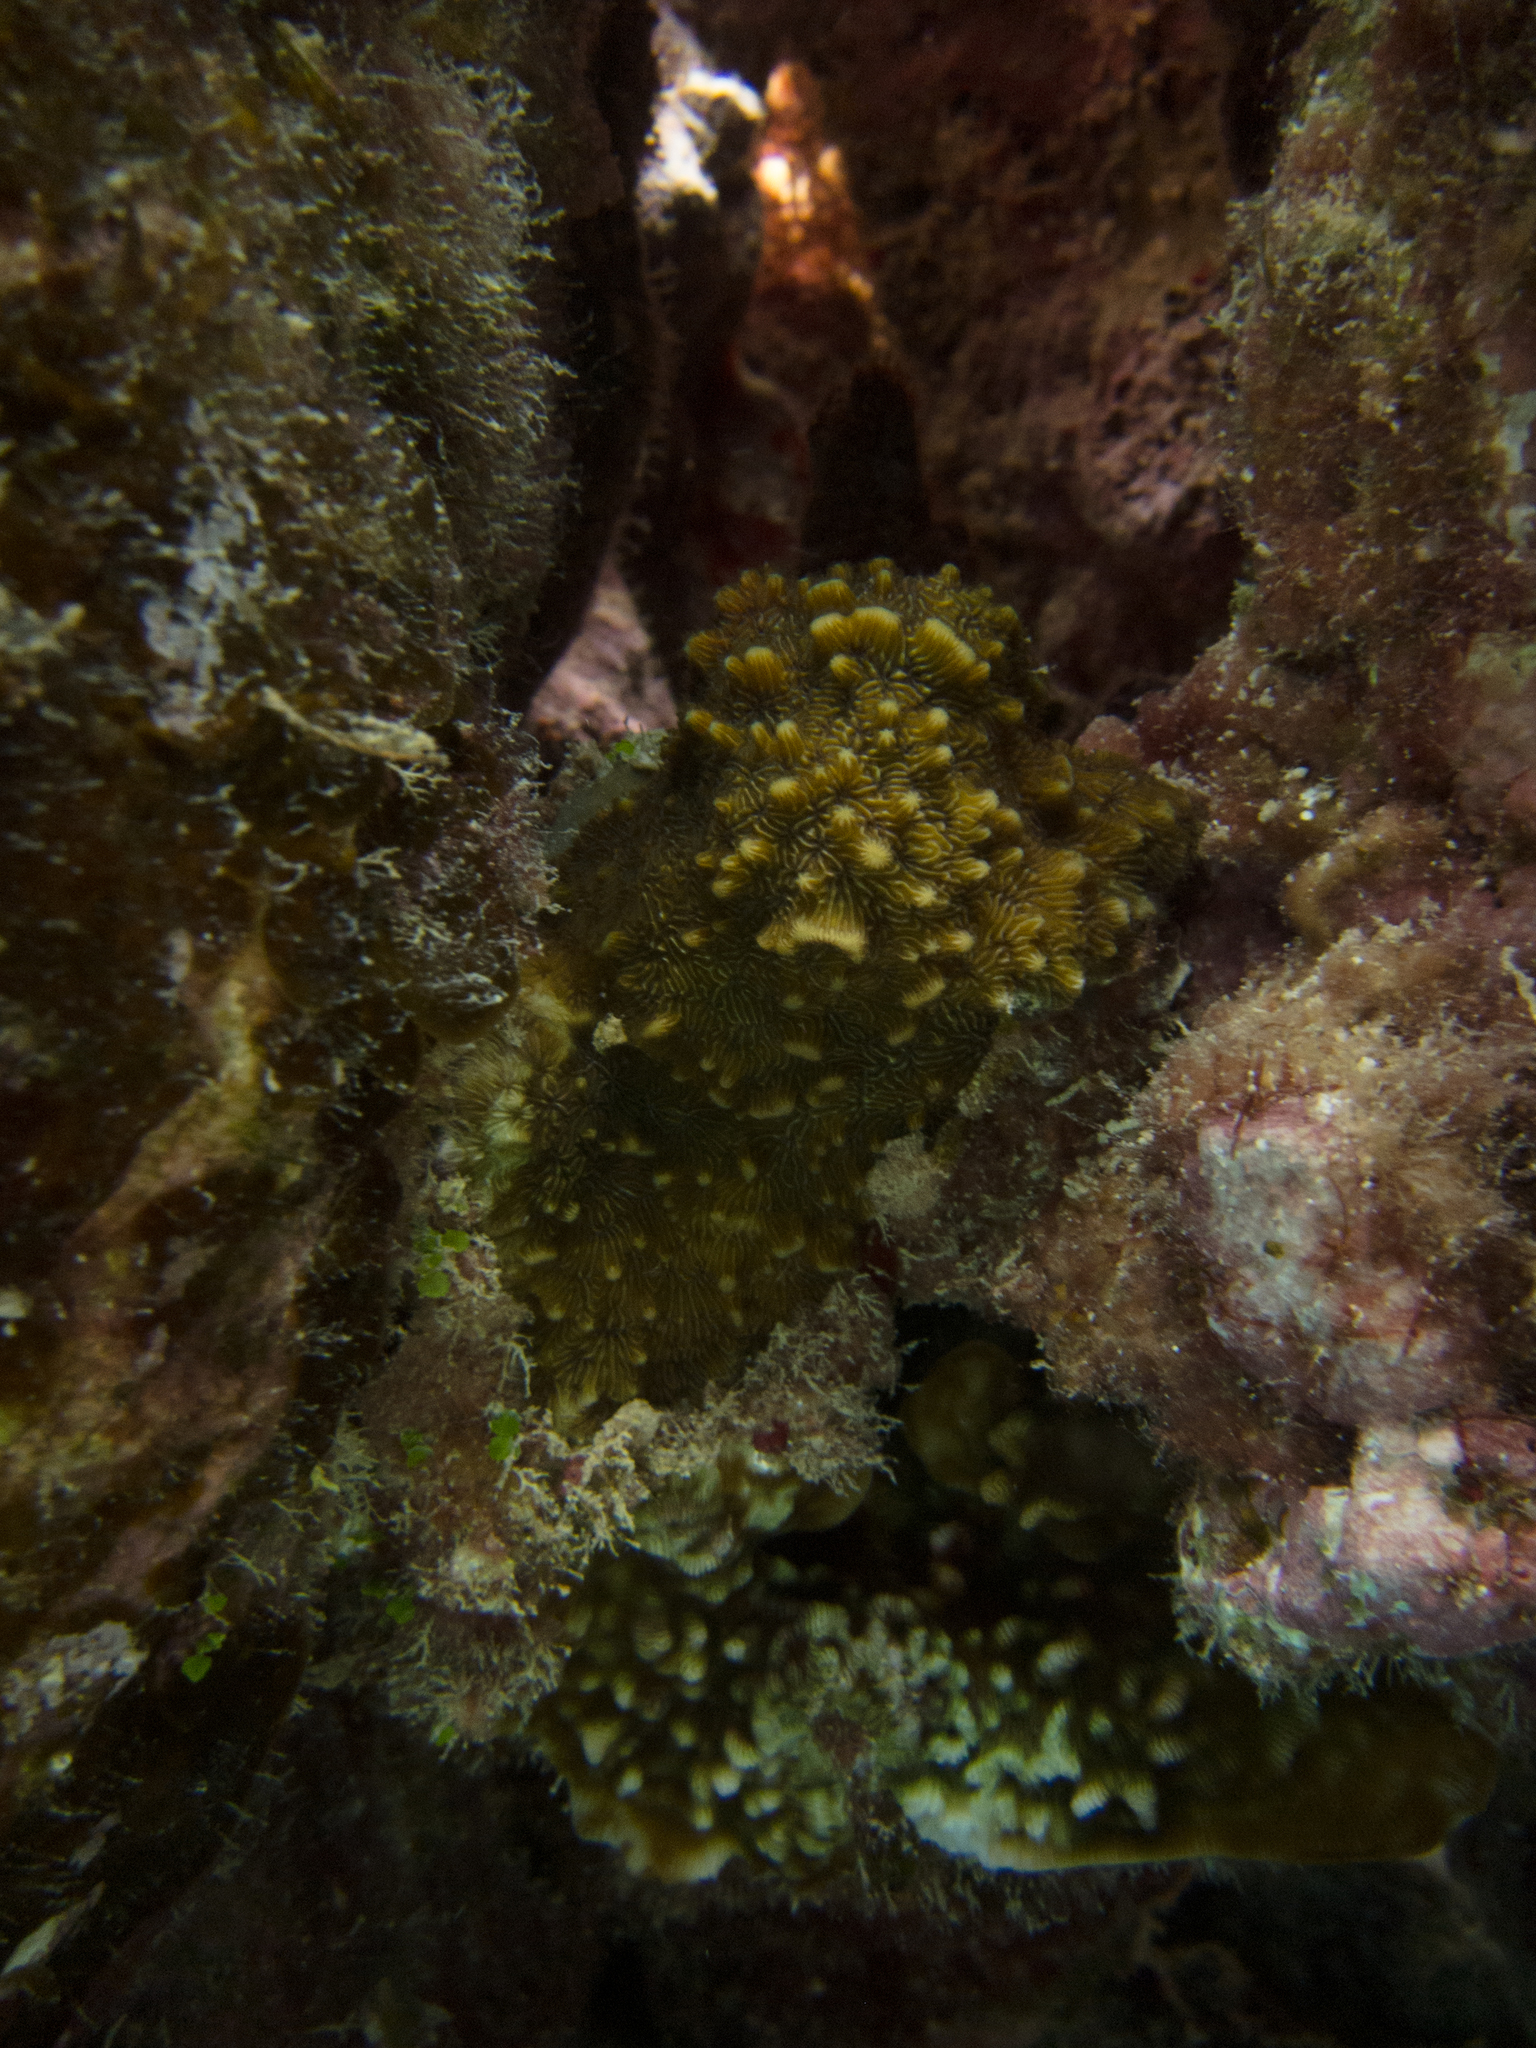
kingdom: Animalia
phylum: Cnidaria
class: Anthozoa
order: Scleractinia
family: Agariciidae
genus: Pavona
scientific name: Pavona varians
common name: Leaf coral
